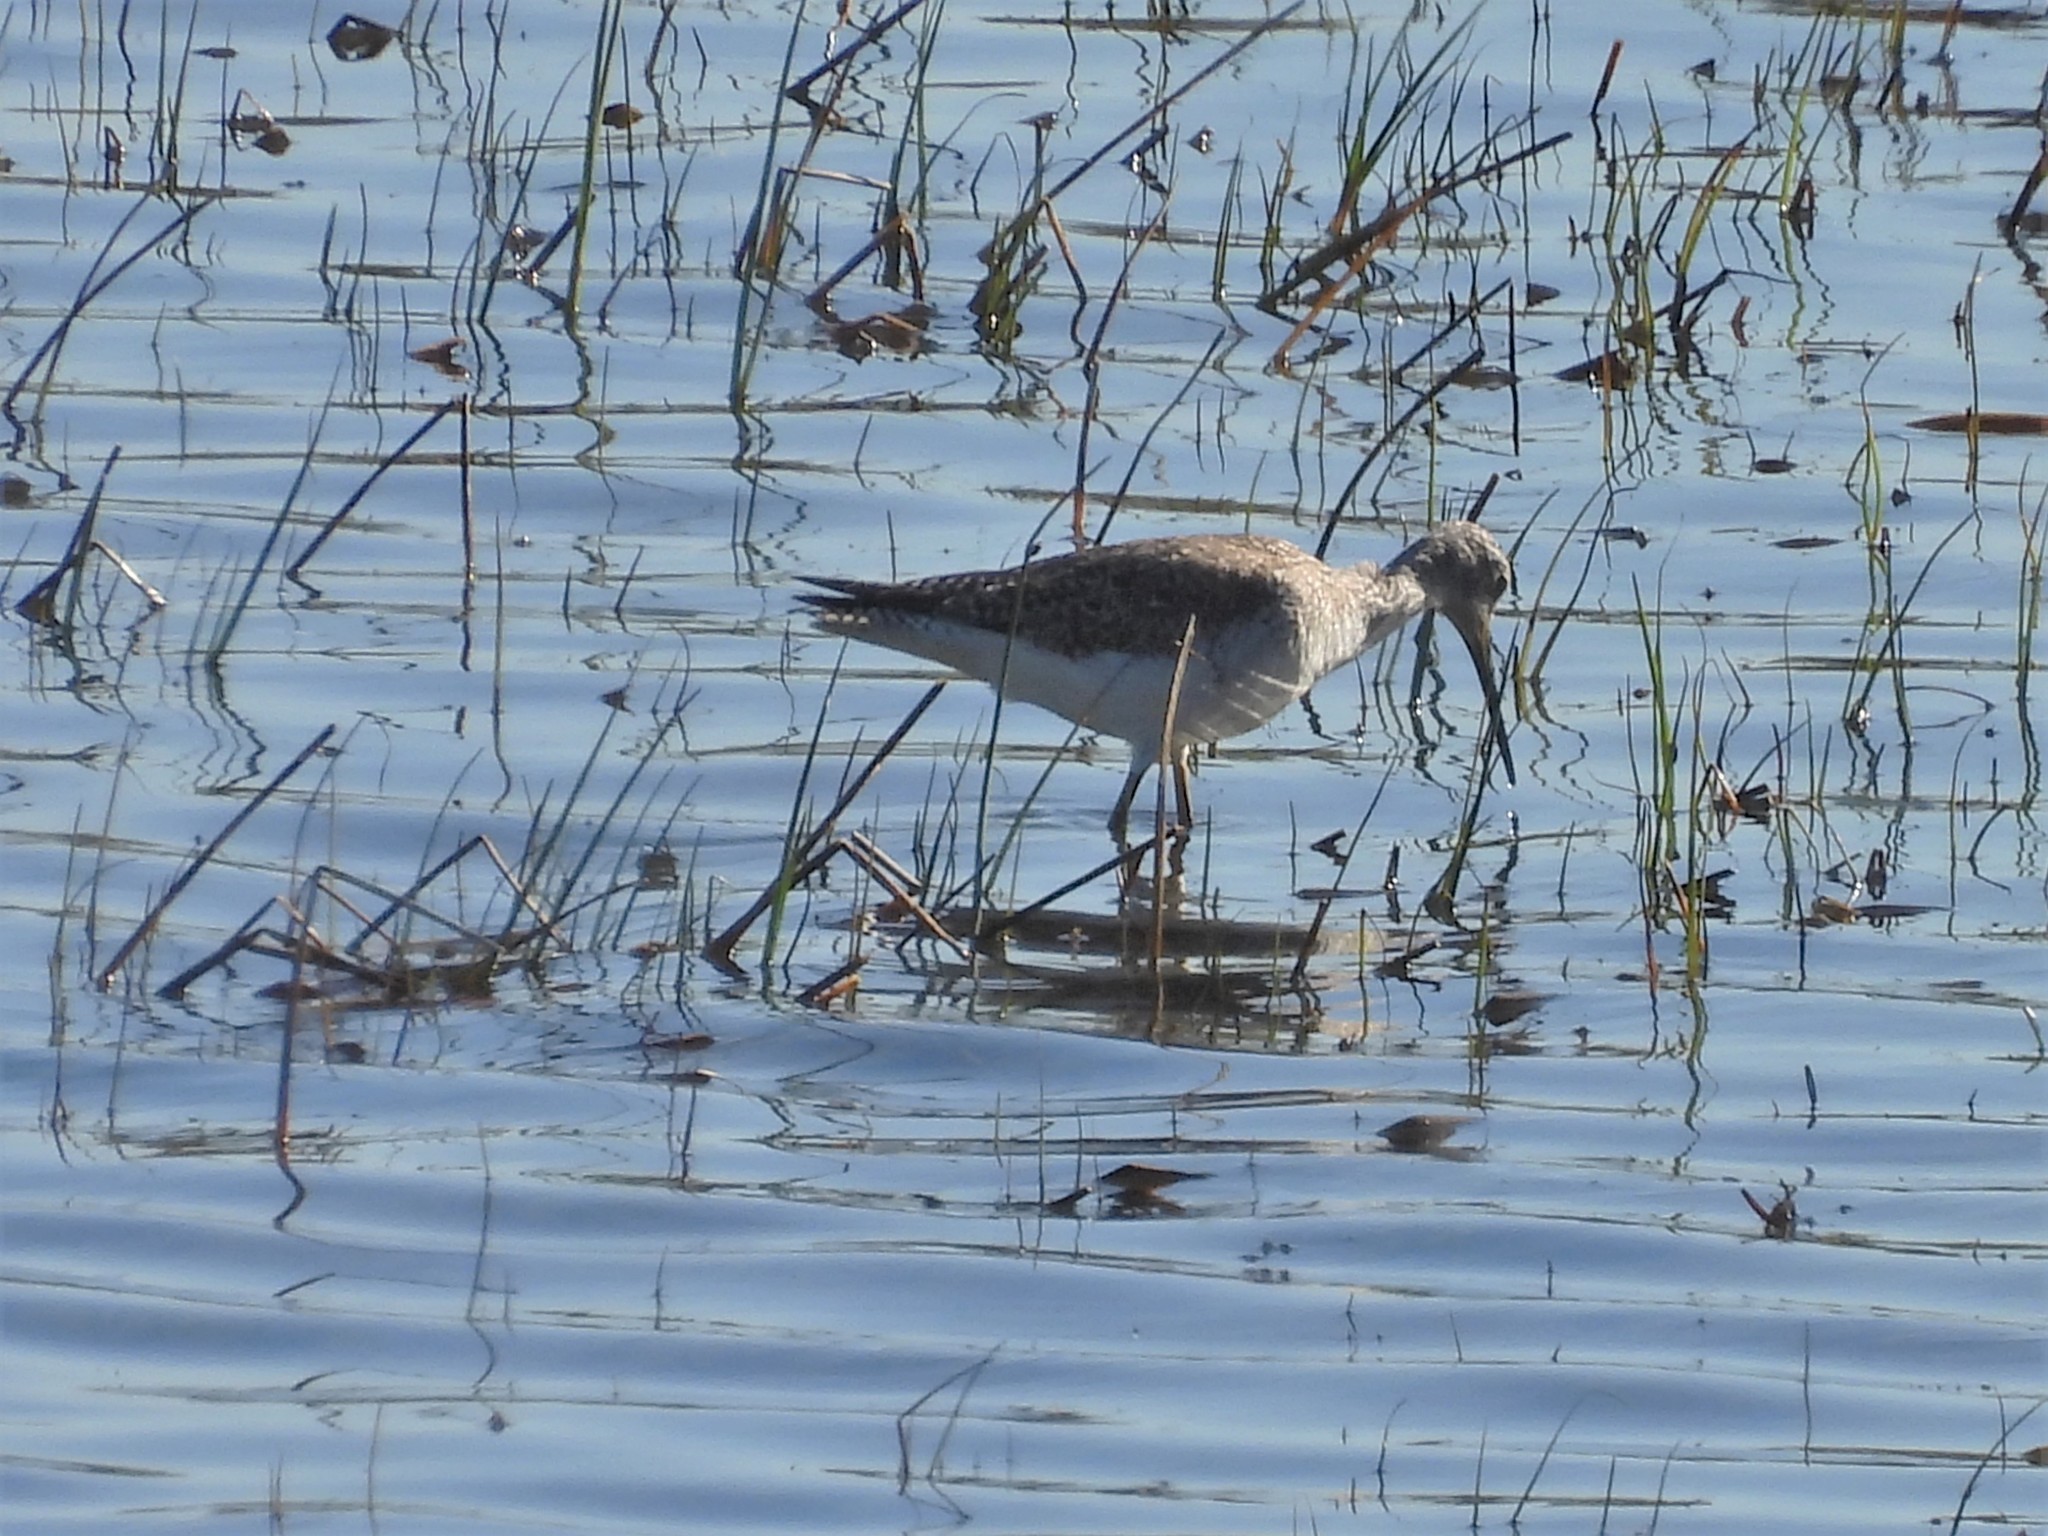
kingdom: Animalia
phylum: Chordata
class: Aves
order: Charadriiformes
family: Scolopacidae
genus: Tringa
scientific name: Tringa melanoleuca
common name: Greater yellowlegs
